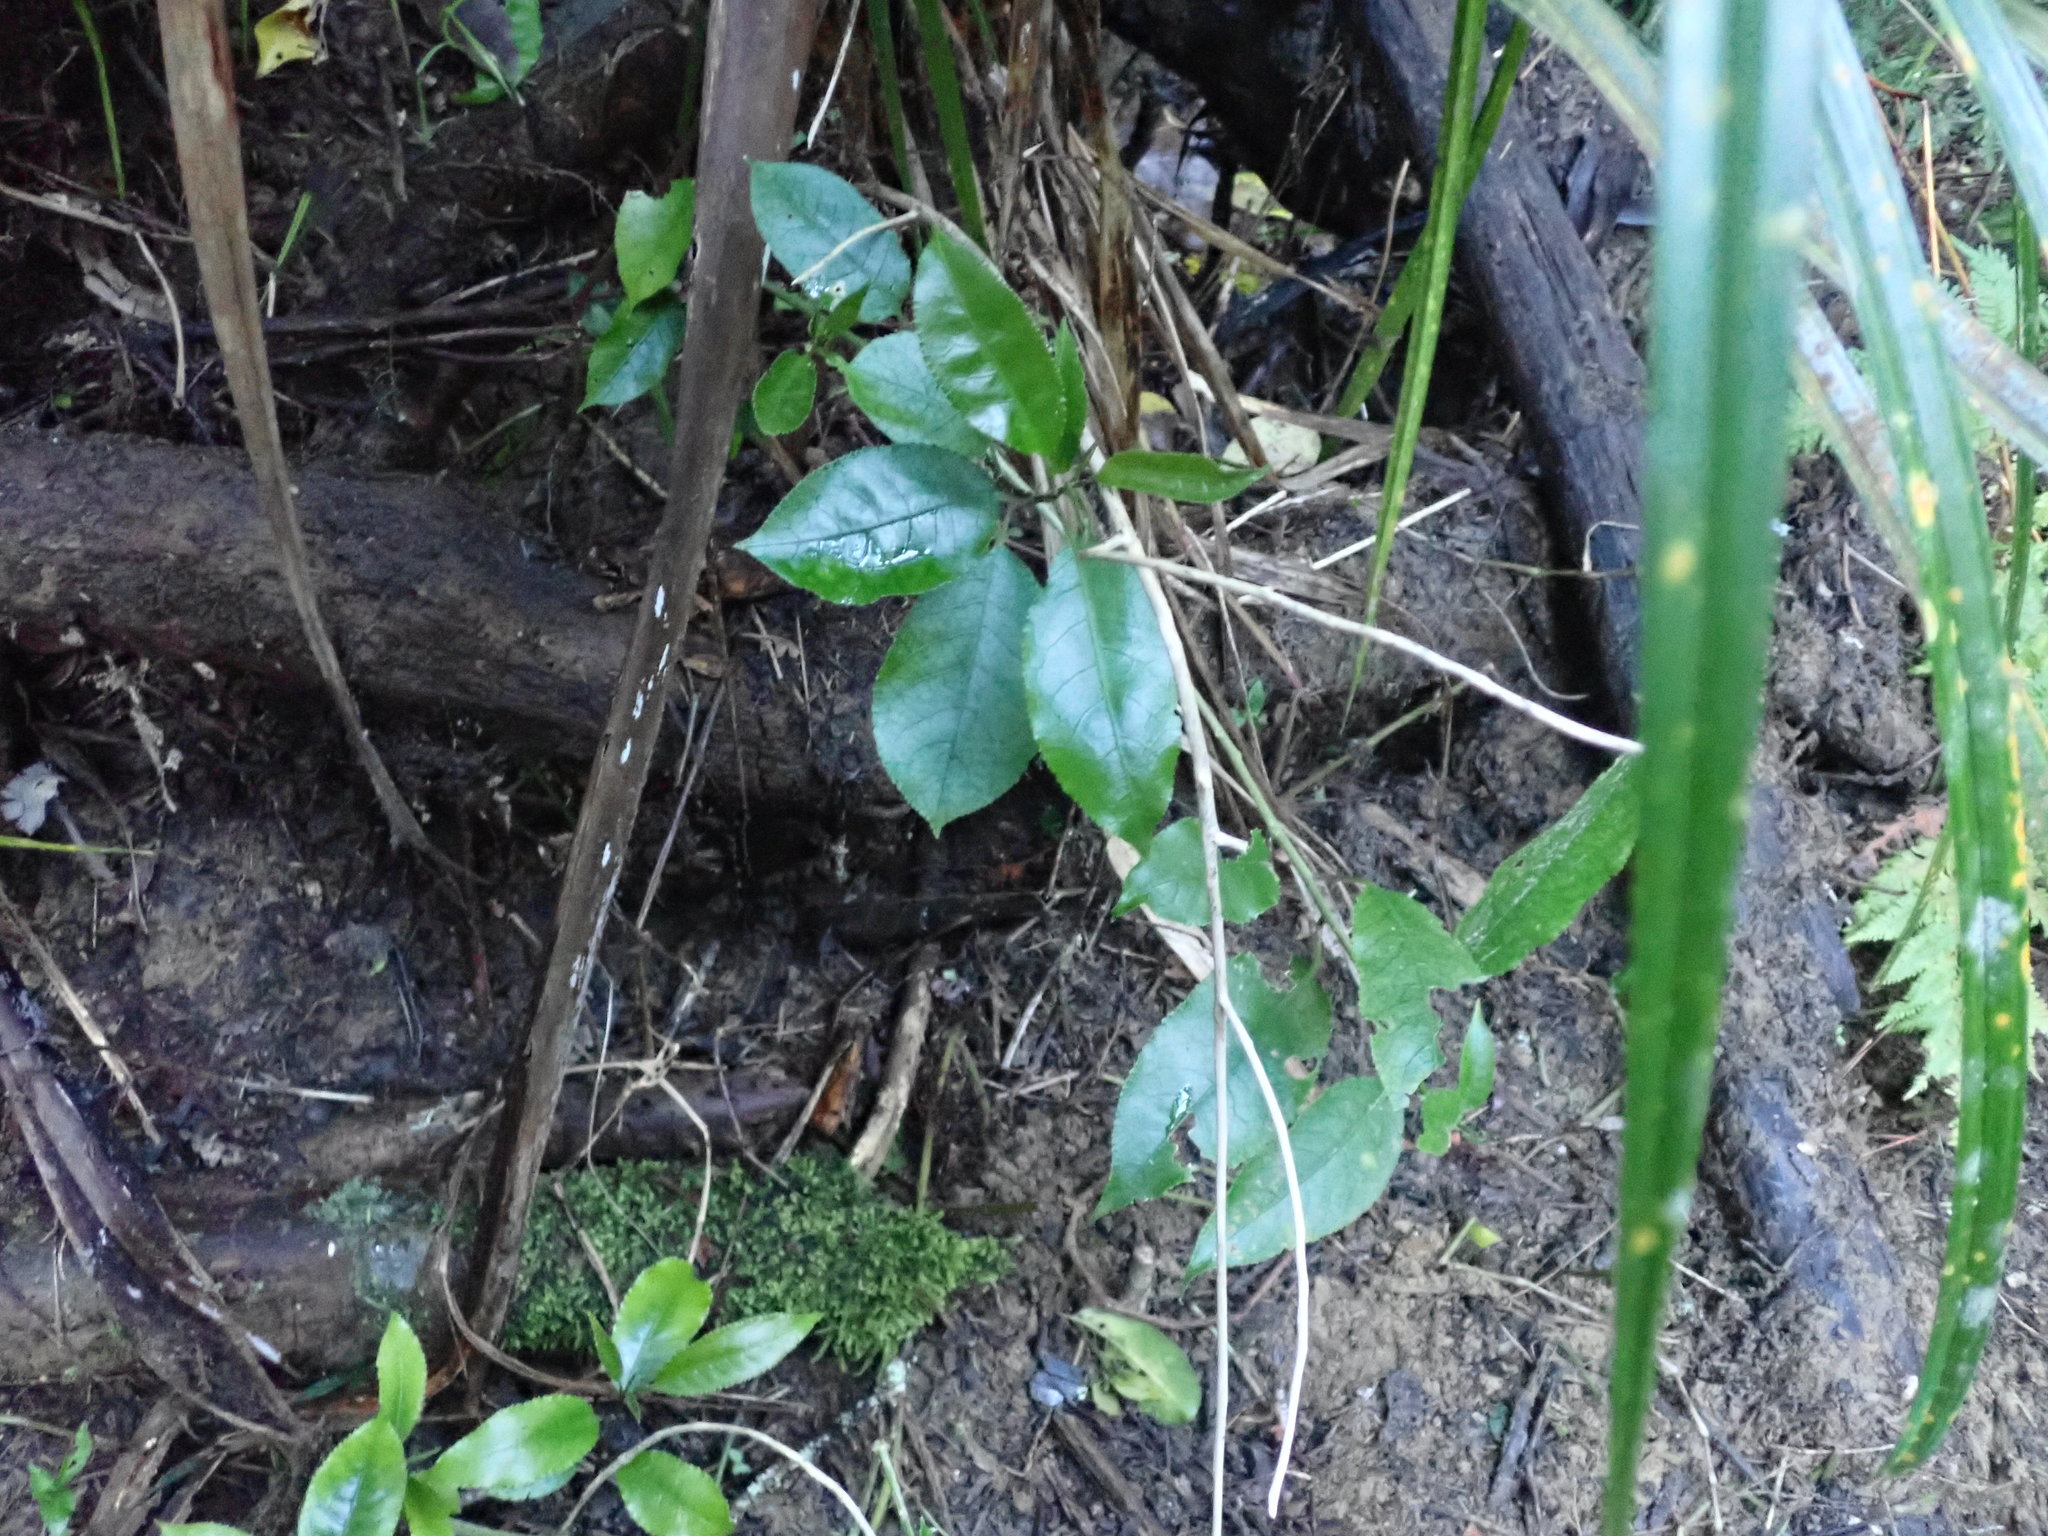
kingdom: Plantae
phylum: Tracheophyta
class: Magnoliopsida
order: Malpighiales
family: Violaceae
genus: Melicytus
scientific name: Melicytus ramiflorus
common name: Mahoe
